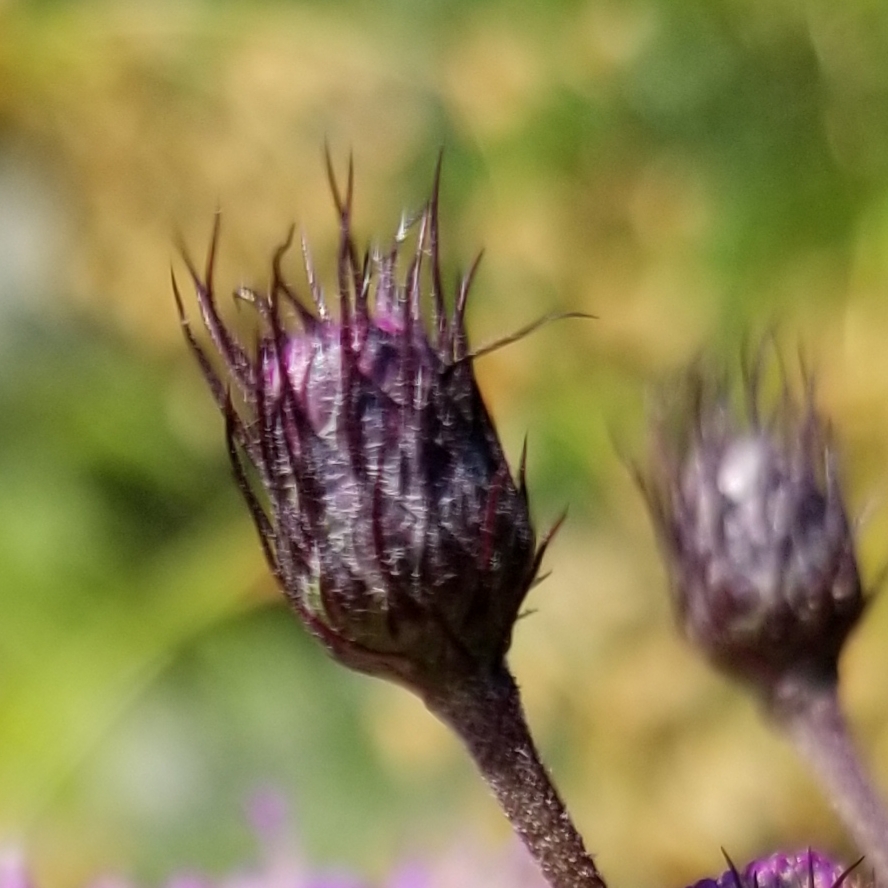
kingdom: Plantae
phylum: Tracheophyta
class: Magnoliopsida
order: Asterales
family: Asteraceae
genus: Vernonia
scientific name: Vernonia noveboracensis
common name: New york ironweed
